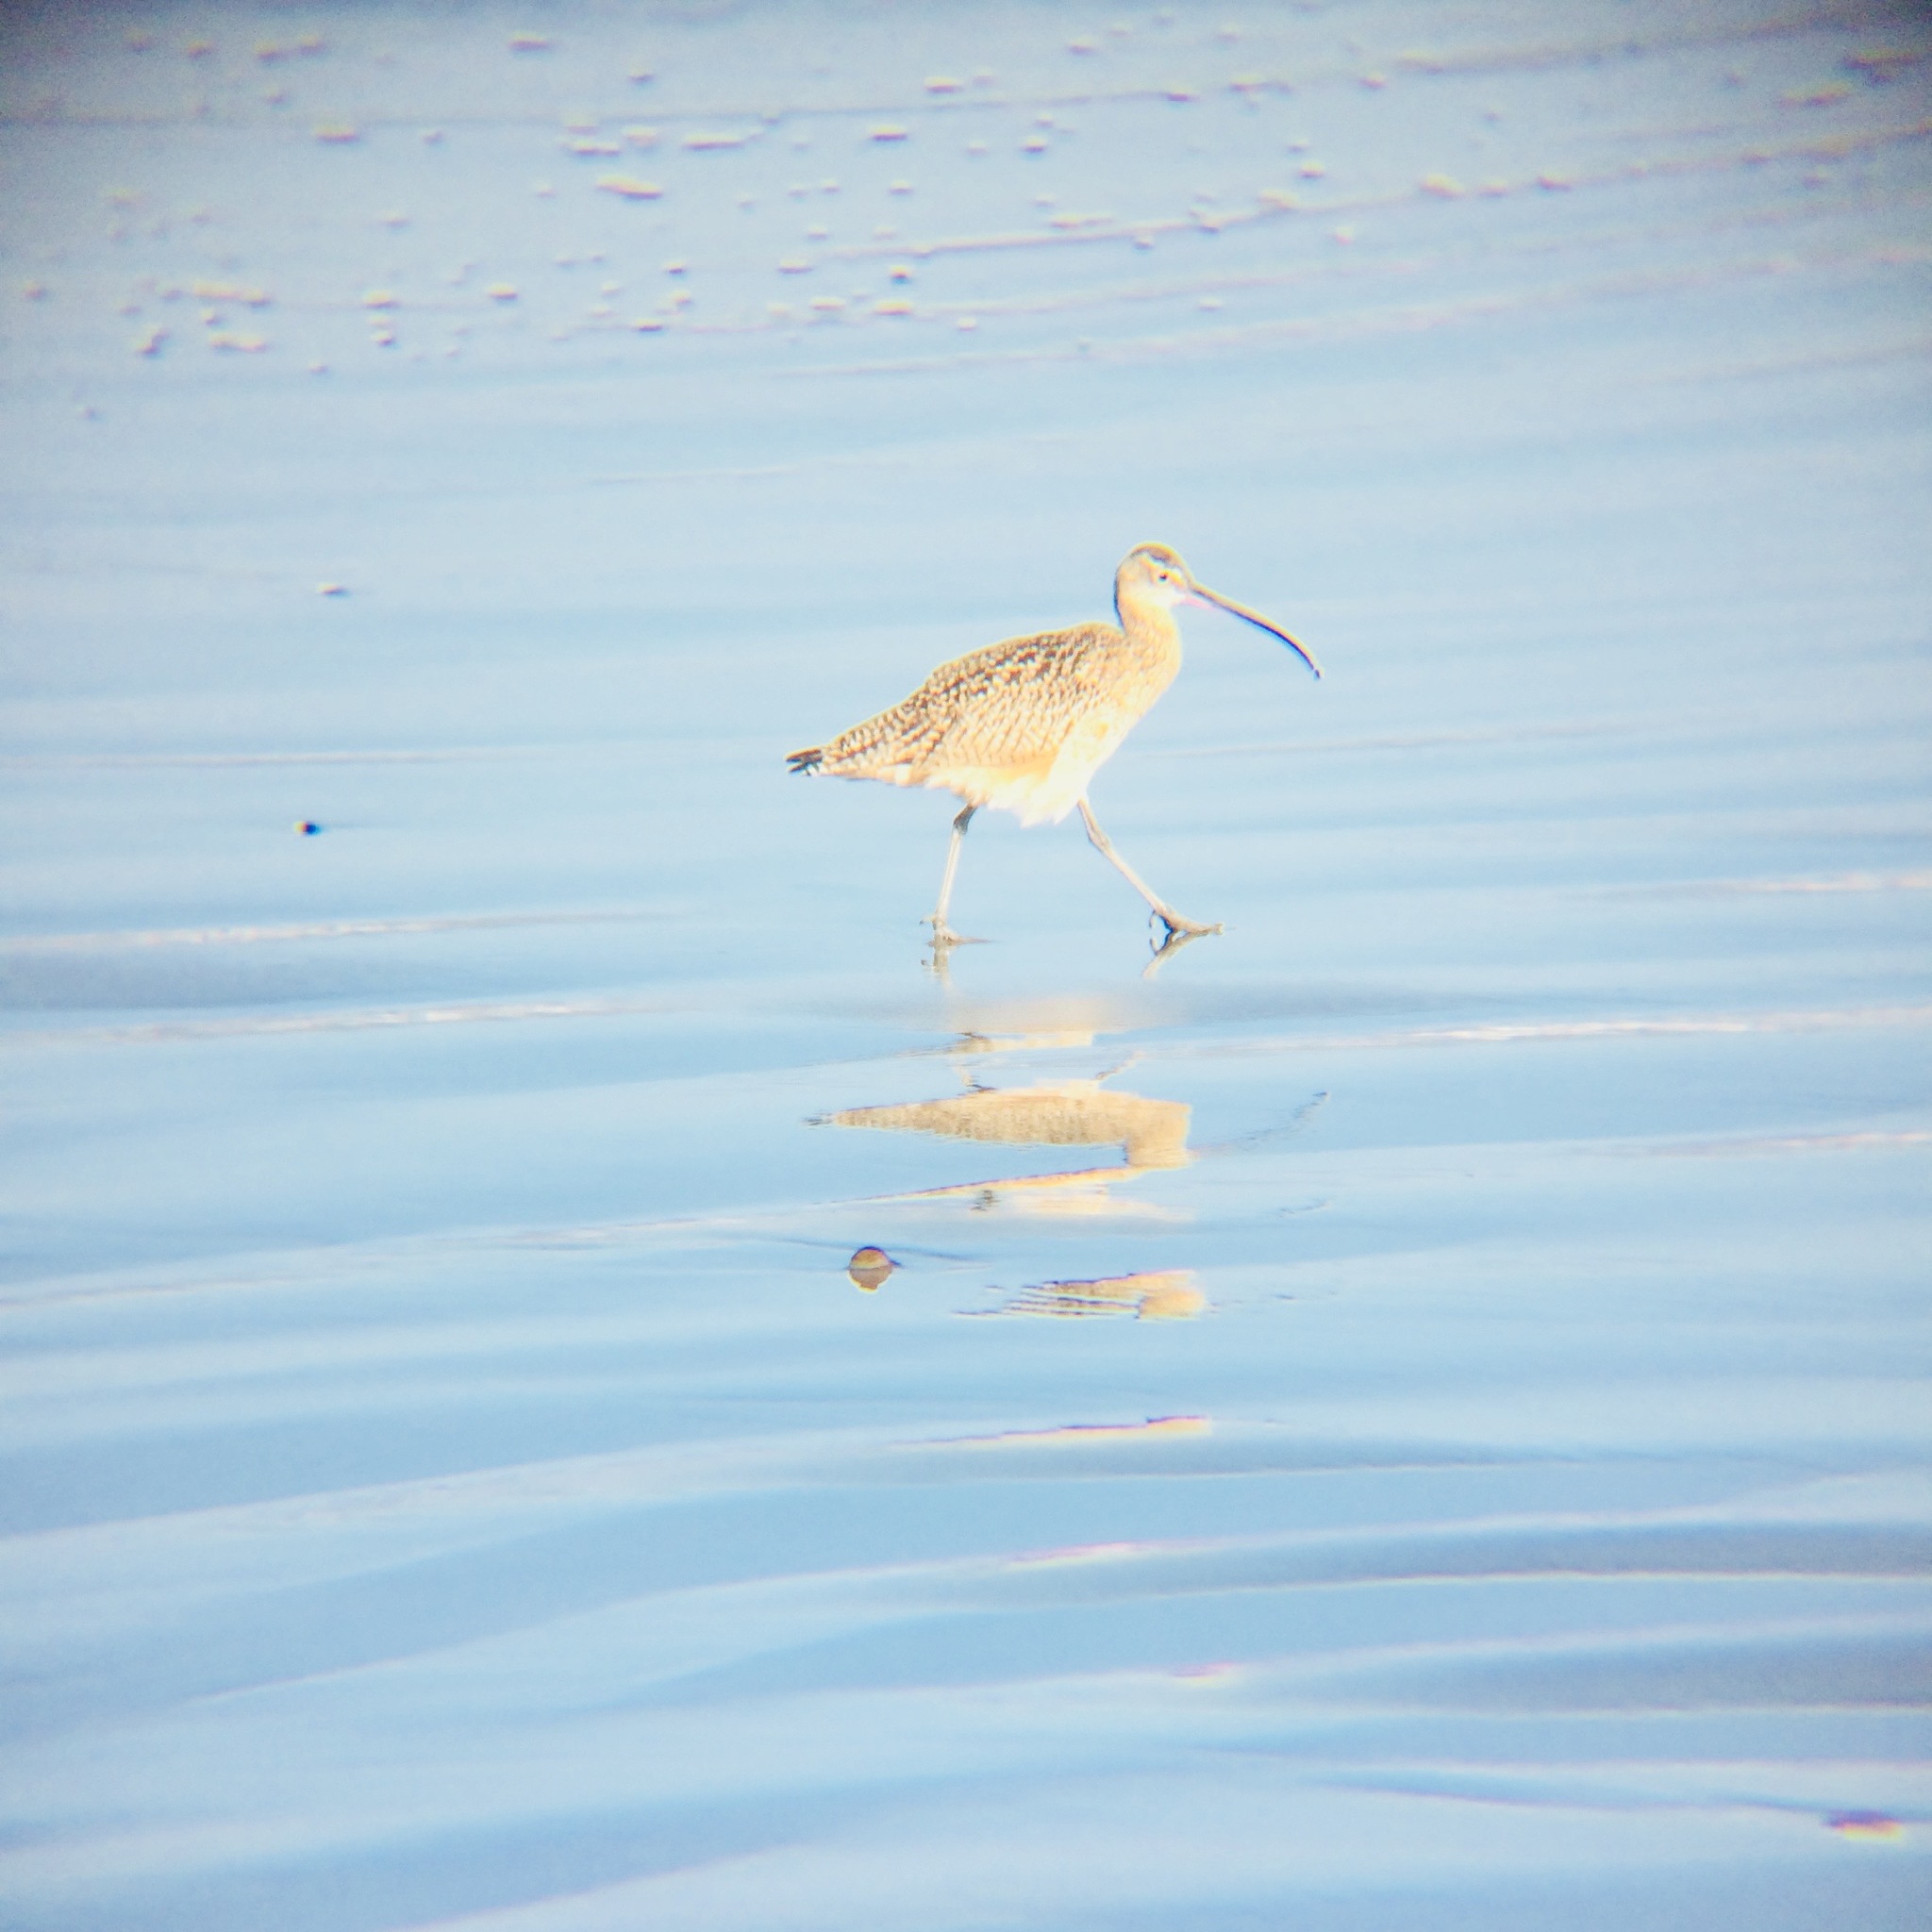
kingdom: Animalia
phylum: Chordata
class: Aves
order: Charadriiformes
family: Scolopacidae
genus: Numenius
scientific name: Numenius americanus
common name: Long-billed curlew
